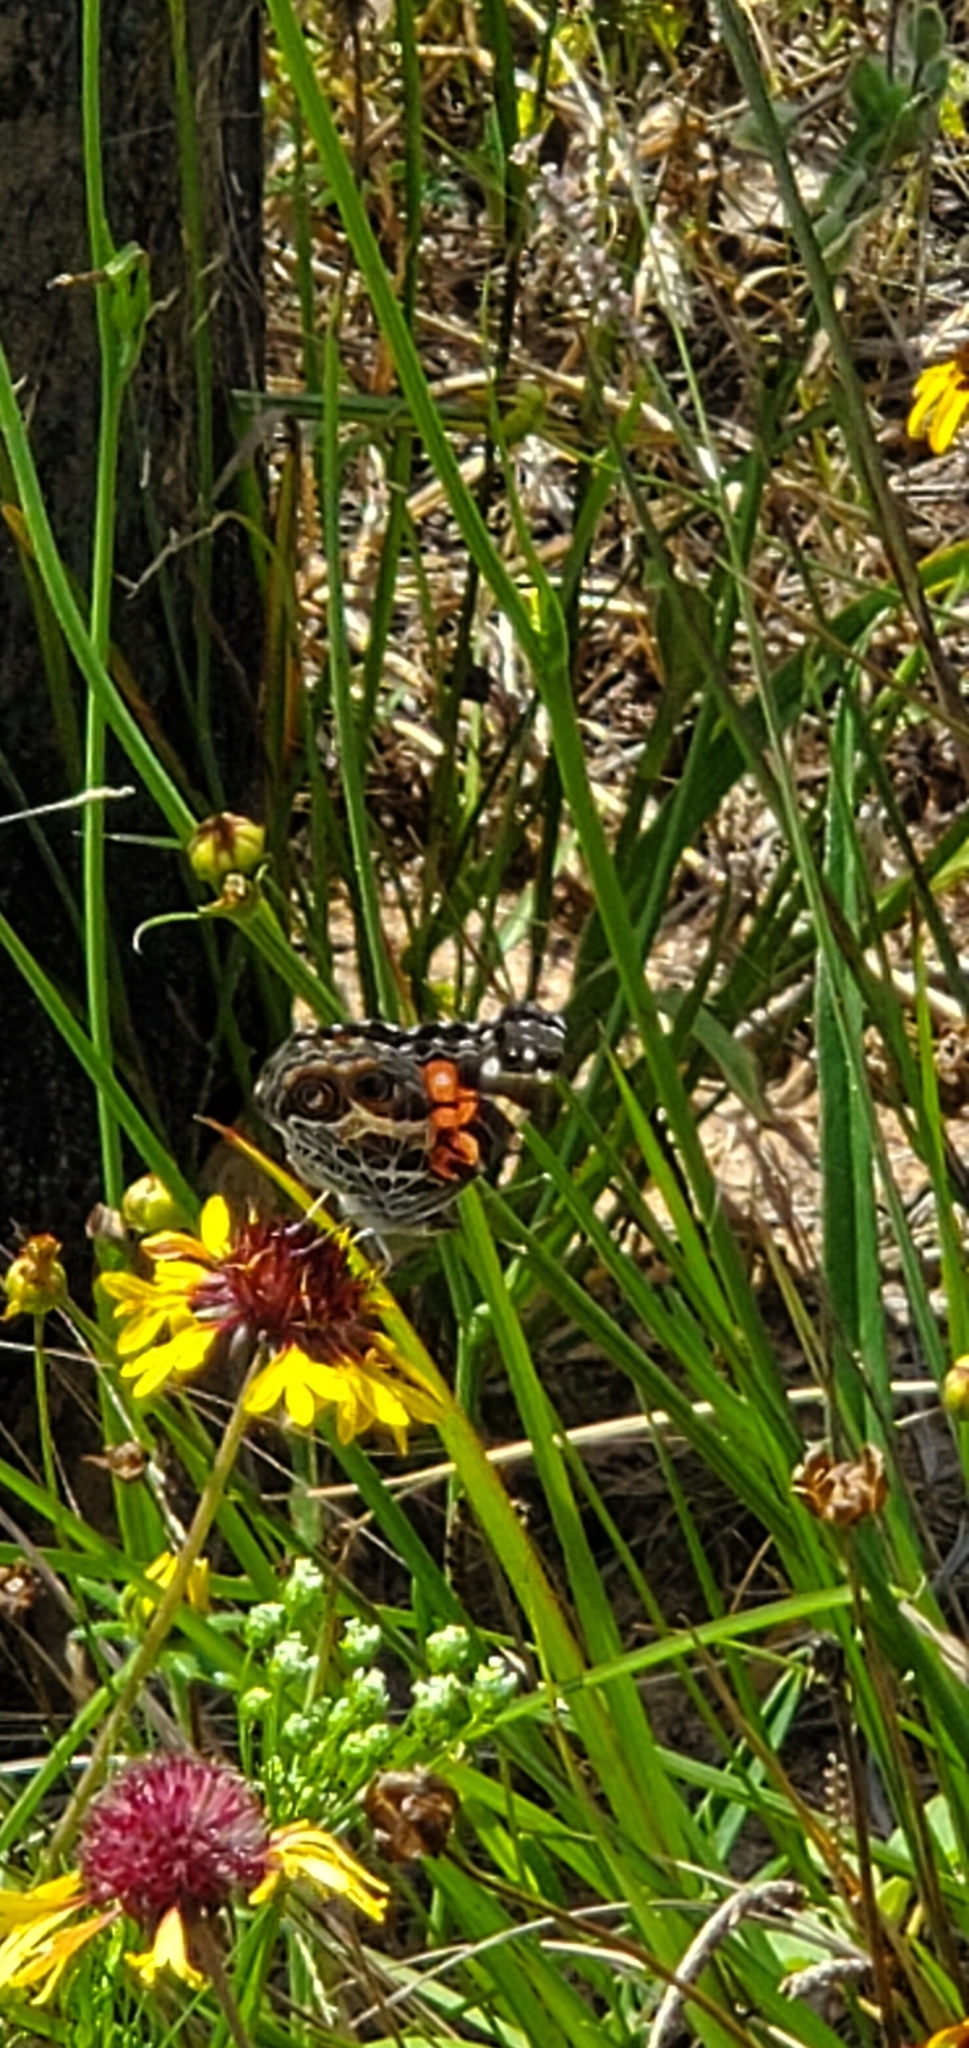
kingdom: Animalia
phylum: Arthropoda
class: Insecta
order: Lepidoptera
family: Nymphalidae
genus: Vanessa
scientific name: Vanessa virginiensis
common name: American lady
